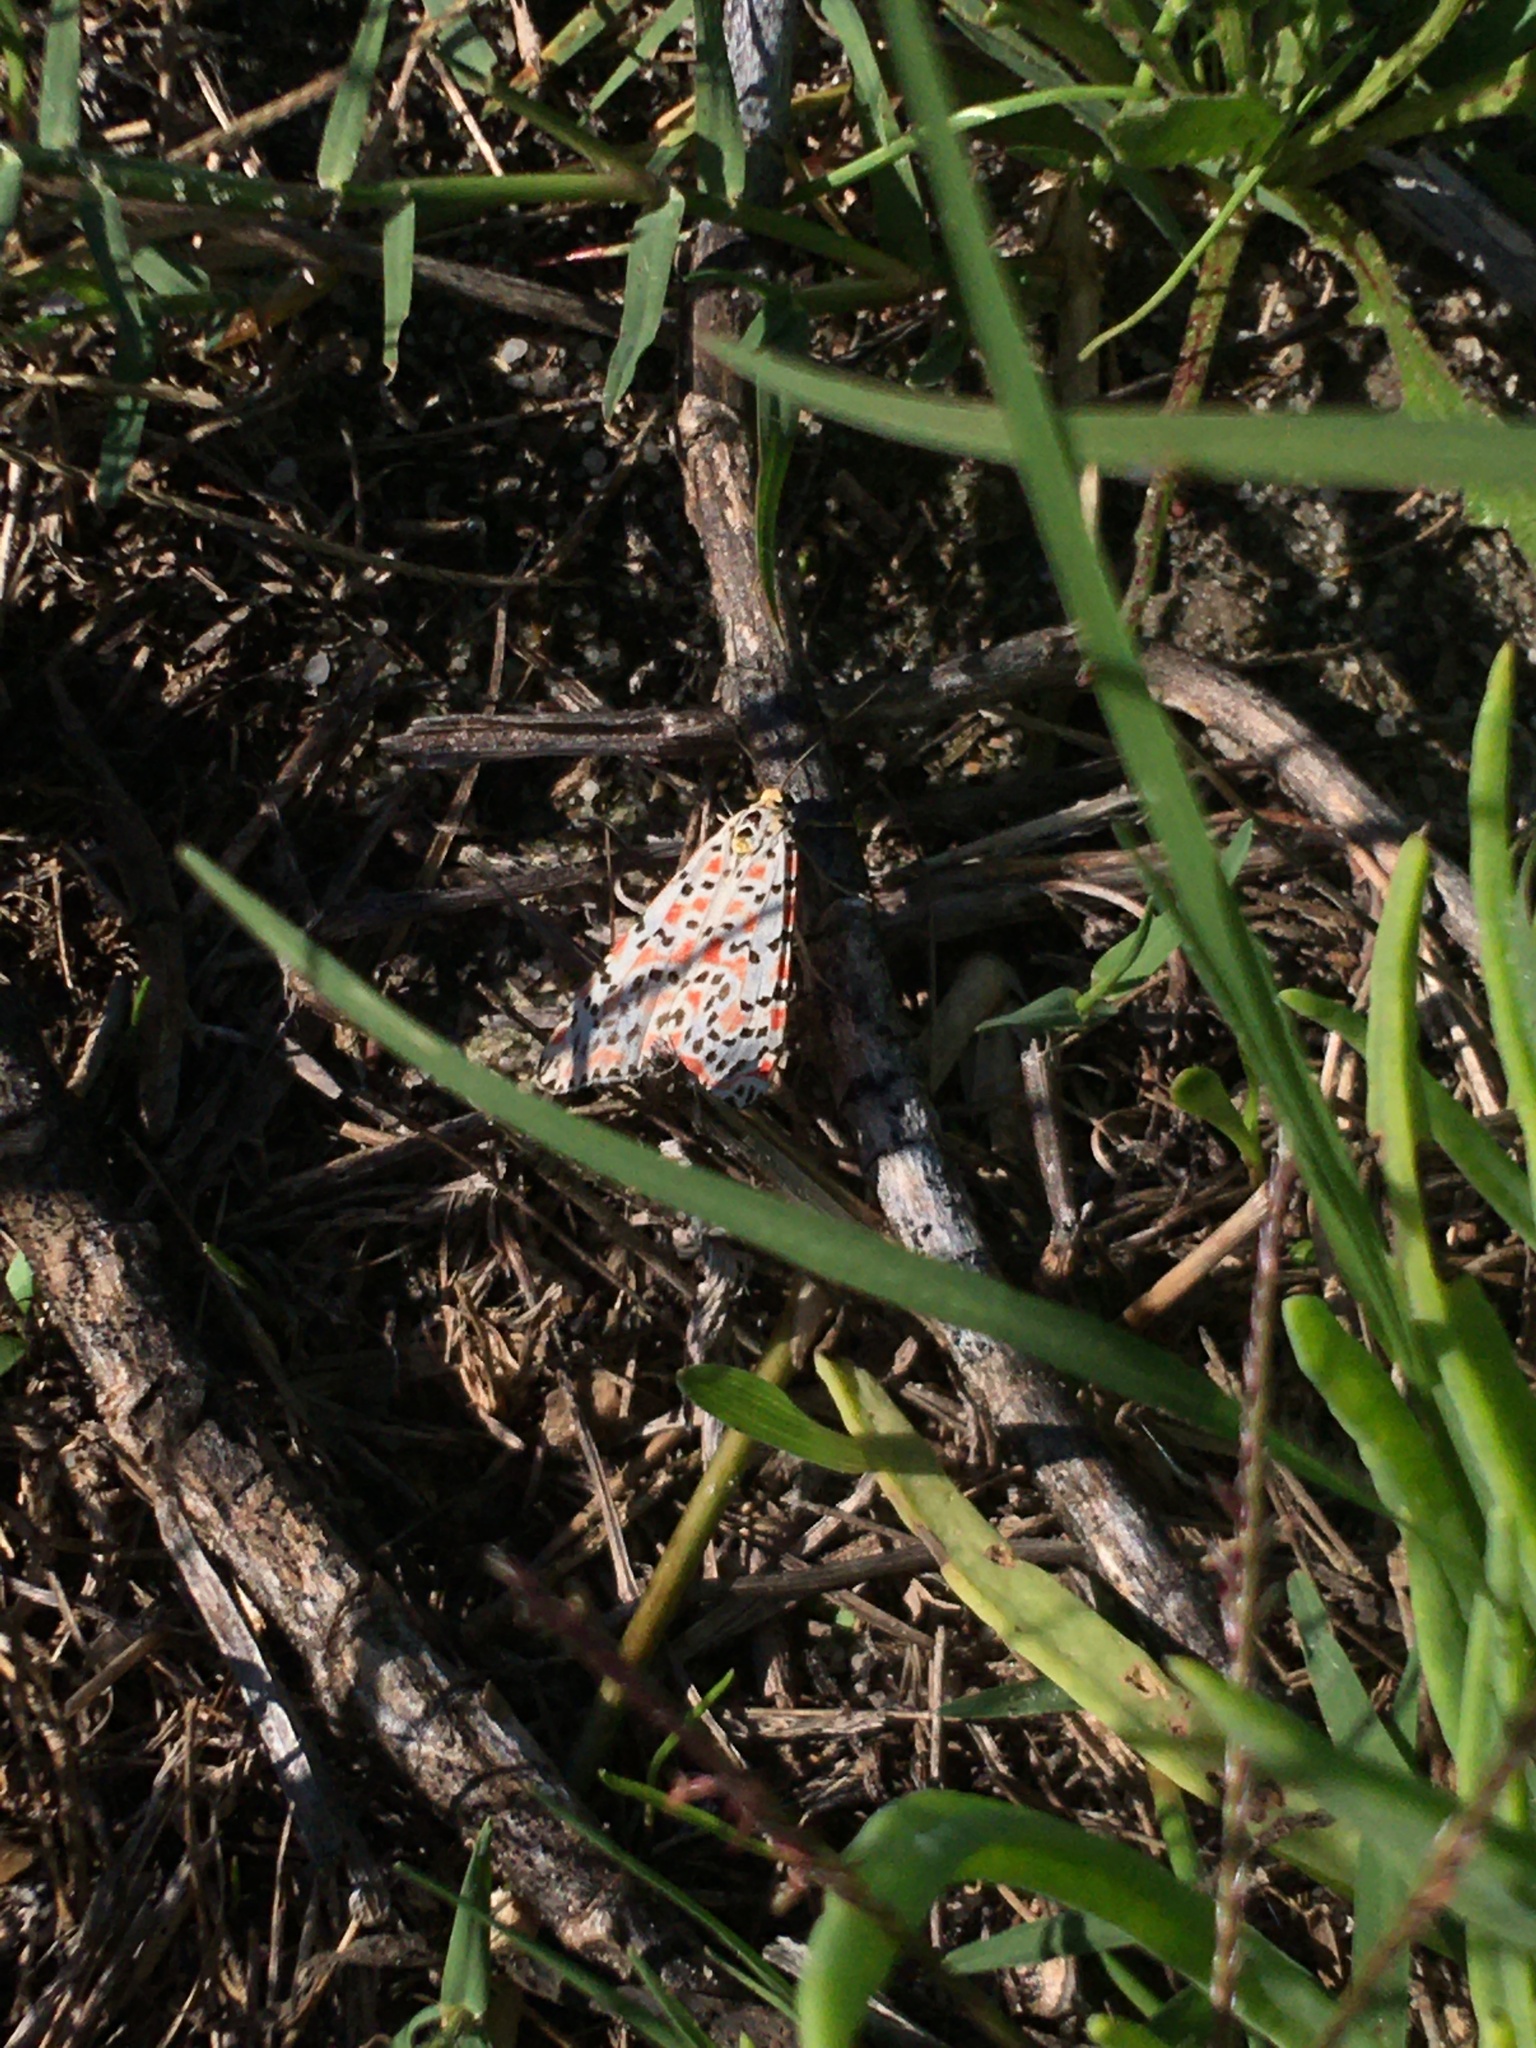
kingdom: Animalia
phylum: Arthropoda
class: Insecta
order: Lepidoptera
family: Erebidae
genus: Utetheisa
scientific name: Utetheisa pulchella
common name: Crimson speckled
